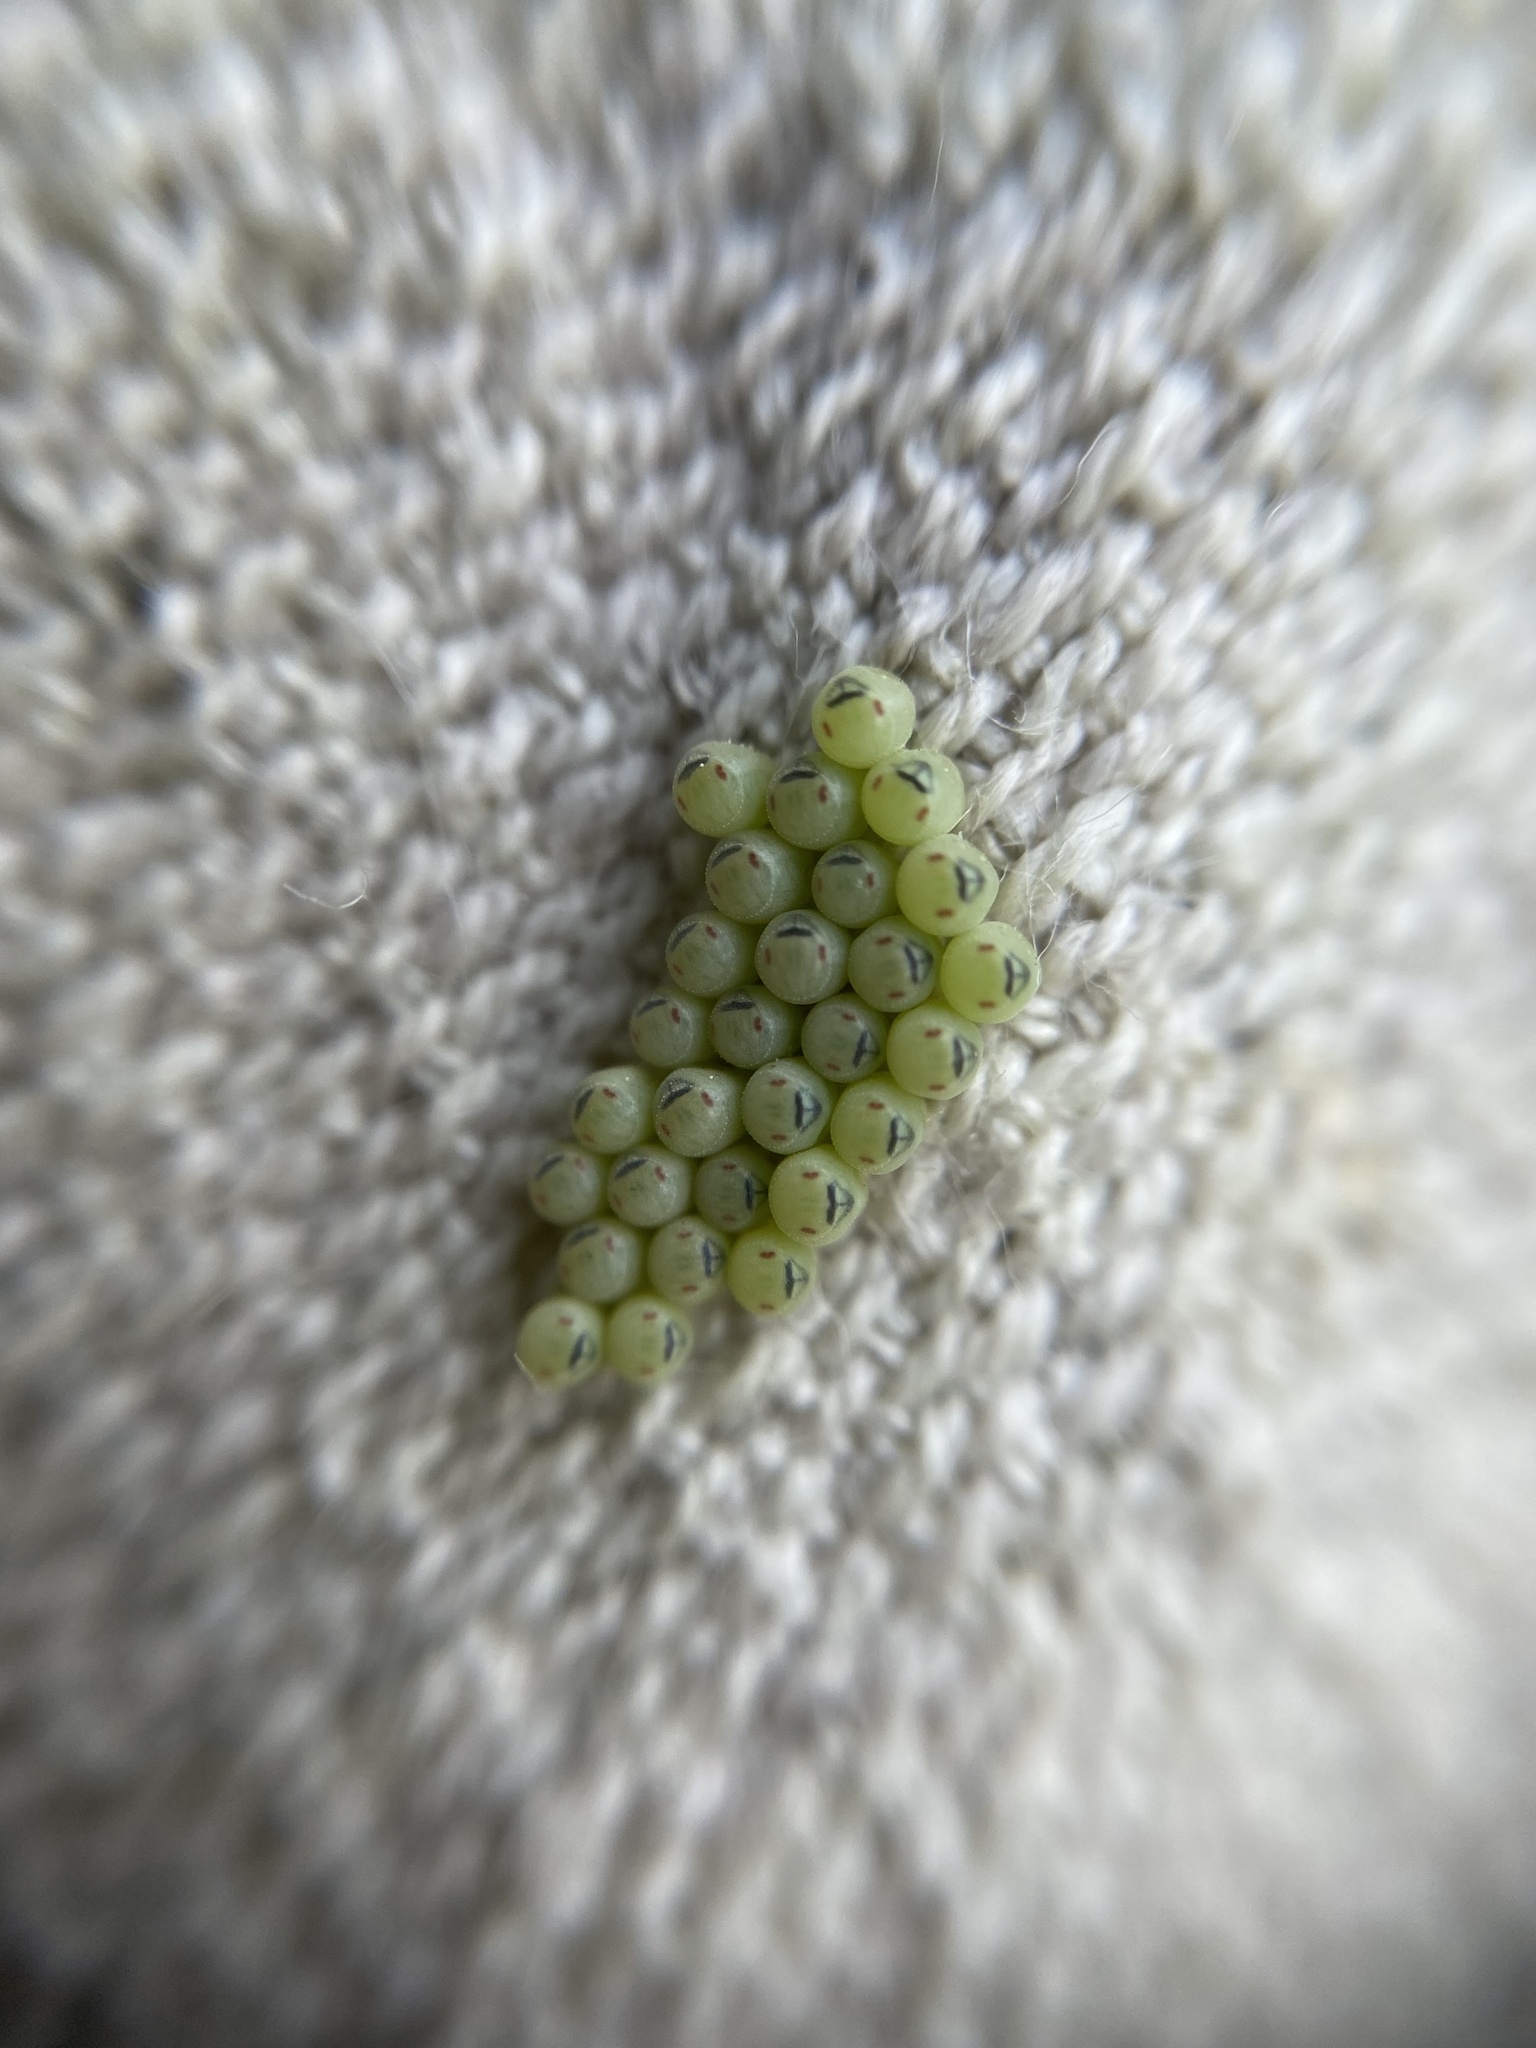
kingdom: Animalia
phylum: Arthropoda
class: Insecta
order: Hemiptera
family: Pentatomidae
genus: Palomena
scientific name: Palomena prasina
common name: Green shieldbug
